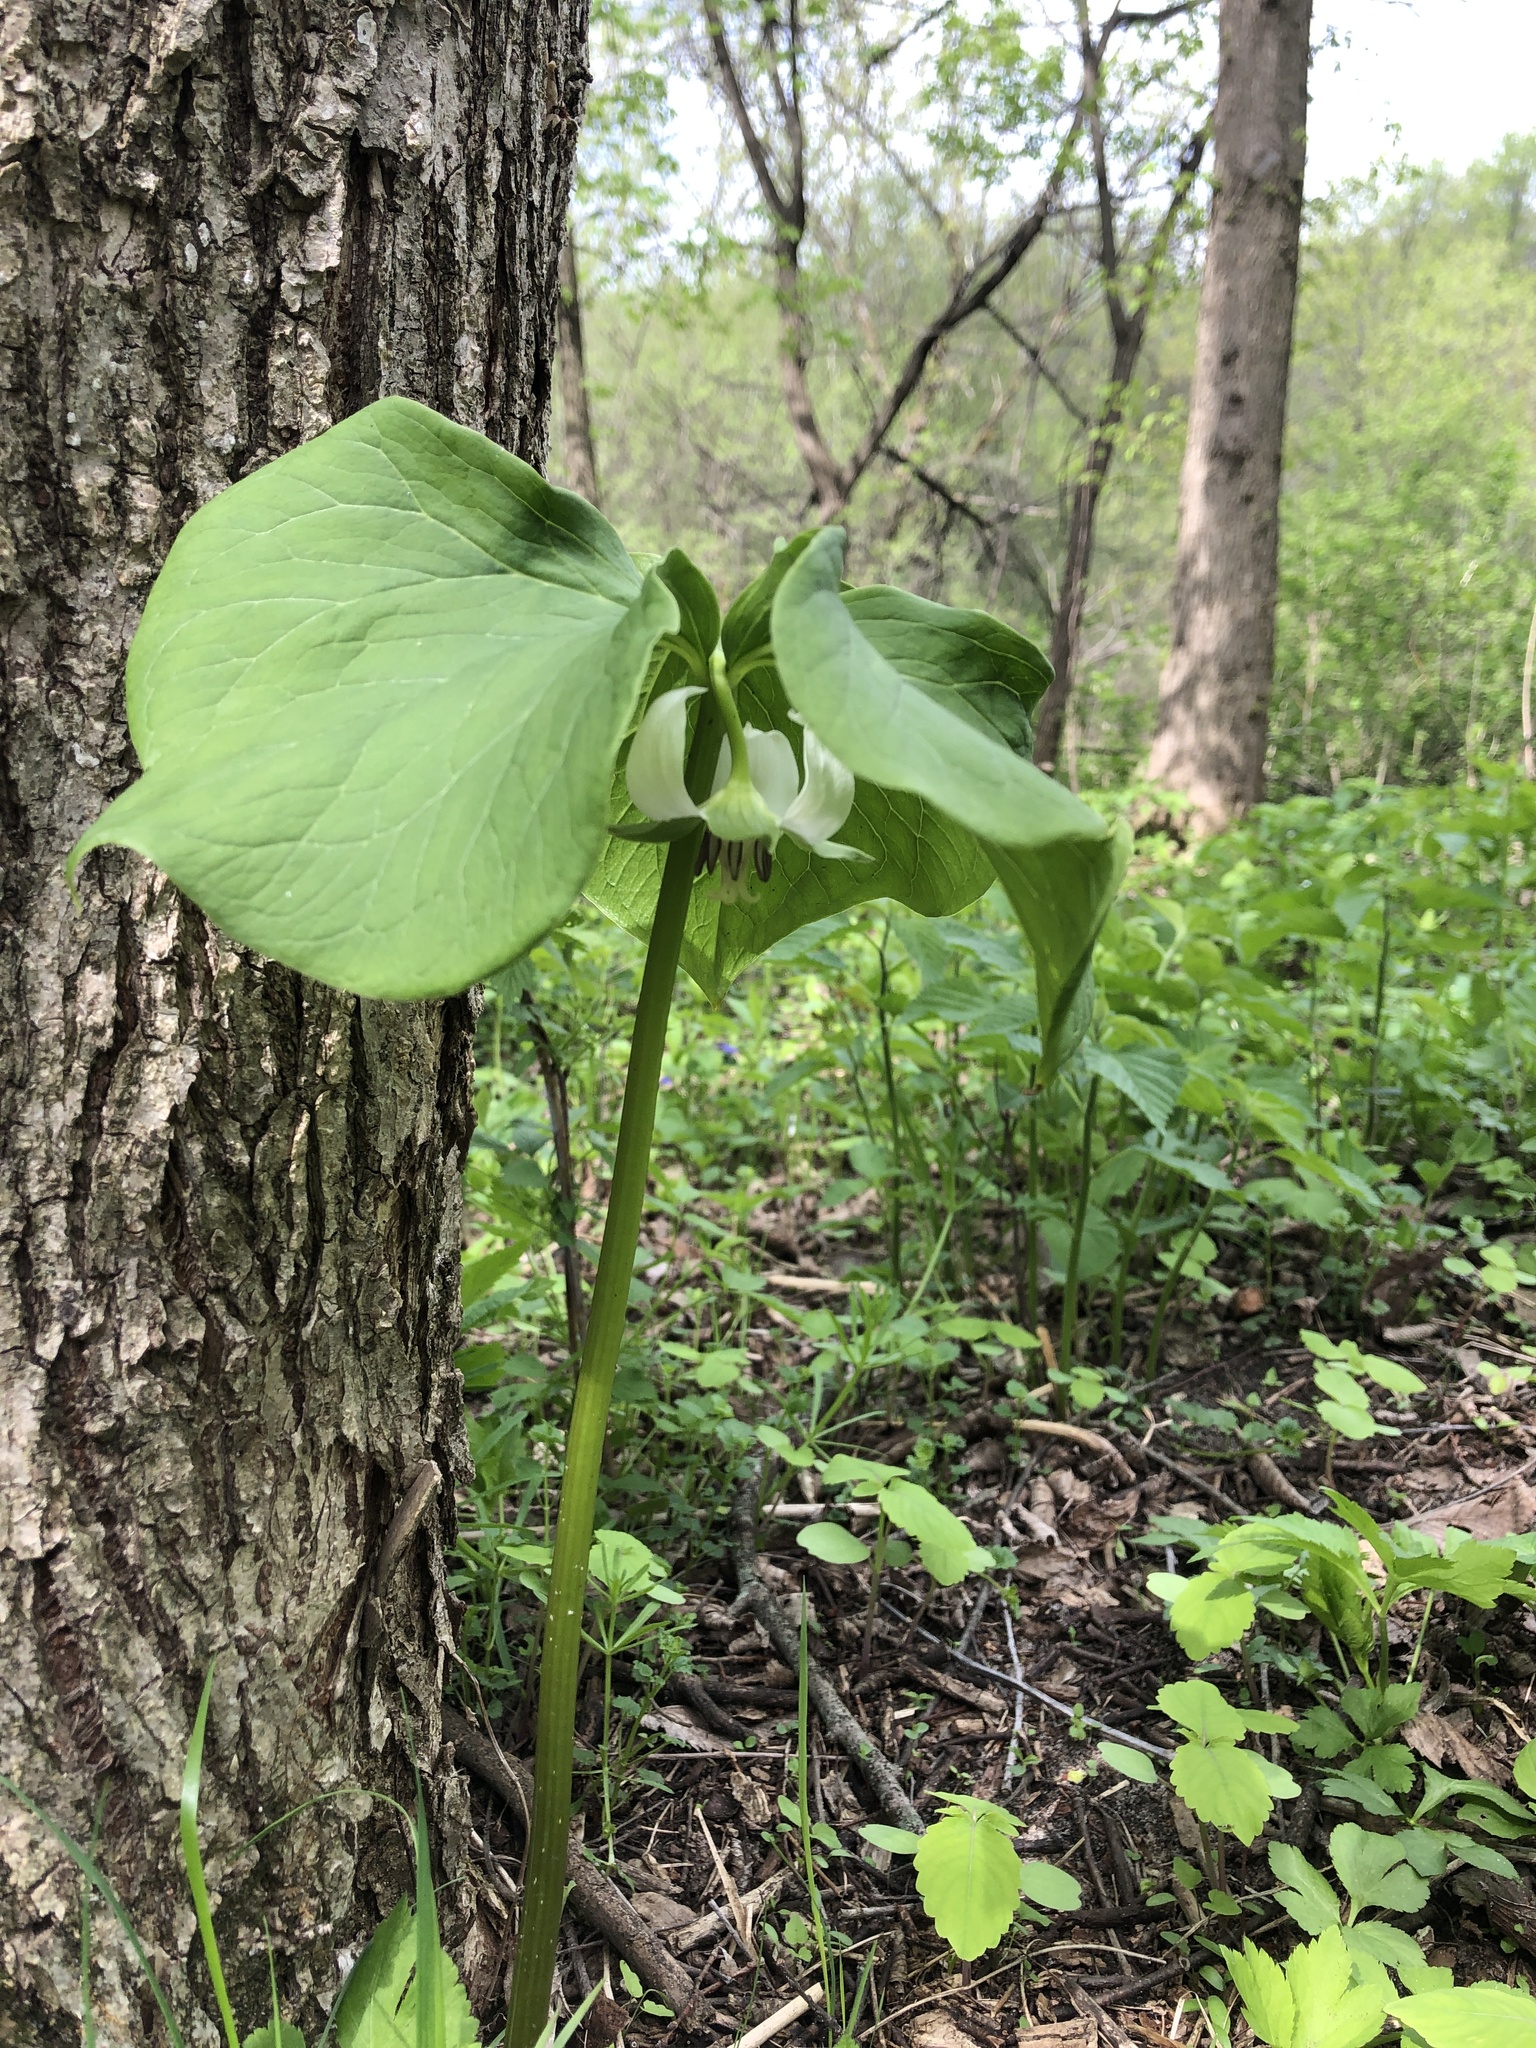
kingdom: Plantae
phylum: Tracheophyta
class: Liliopsida
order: Liliales
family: Melanthiaceae
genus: Trillium
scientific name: Trillium cernuum
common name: Nodding trillium
